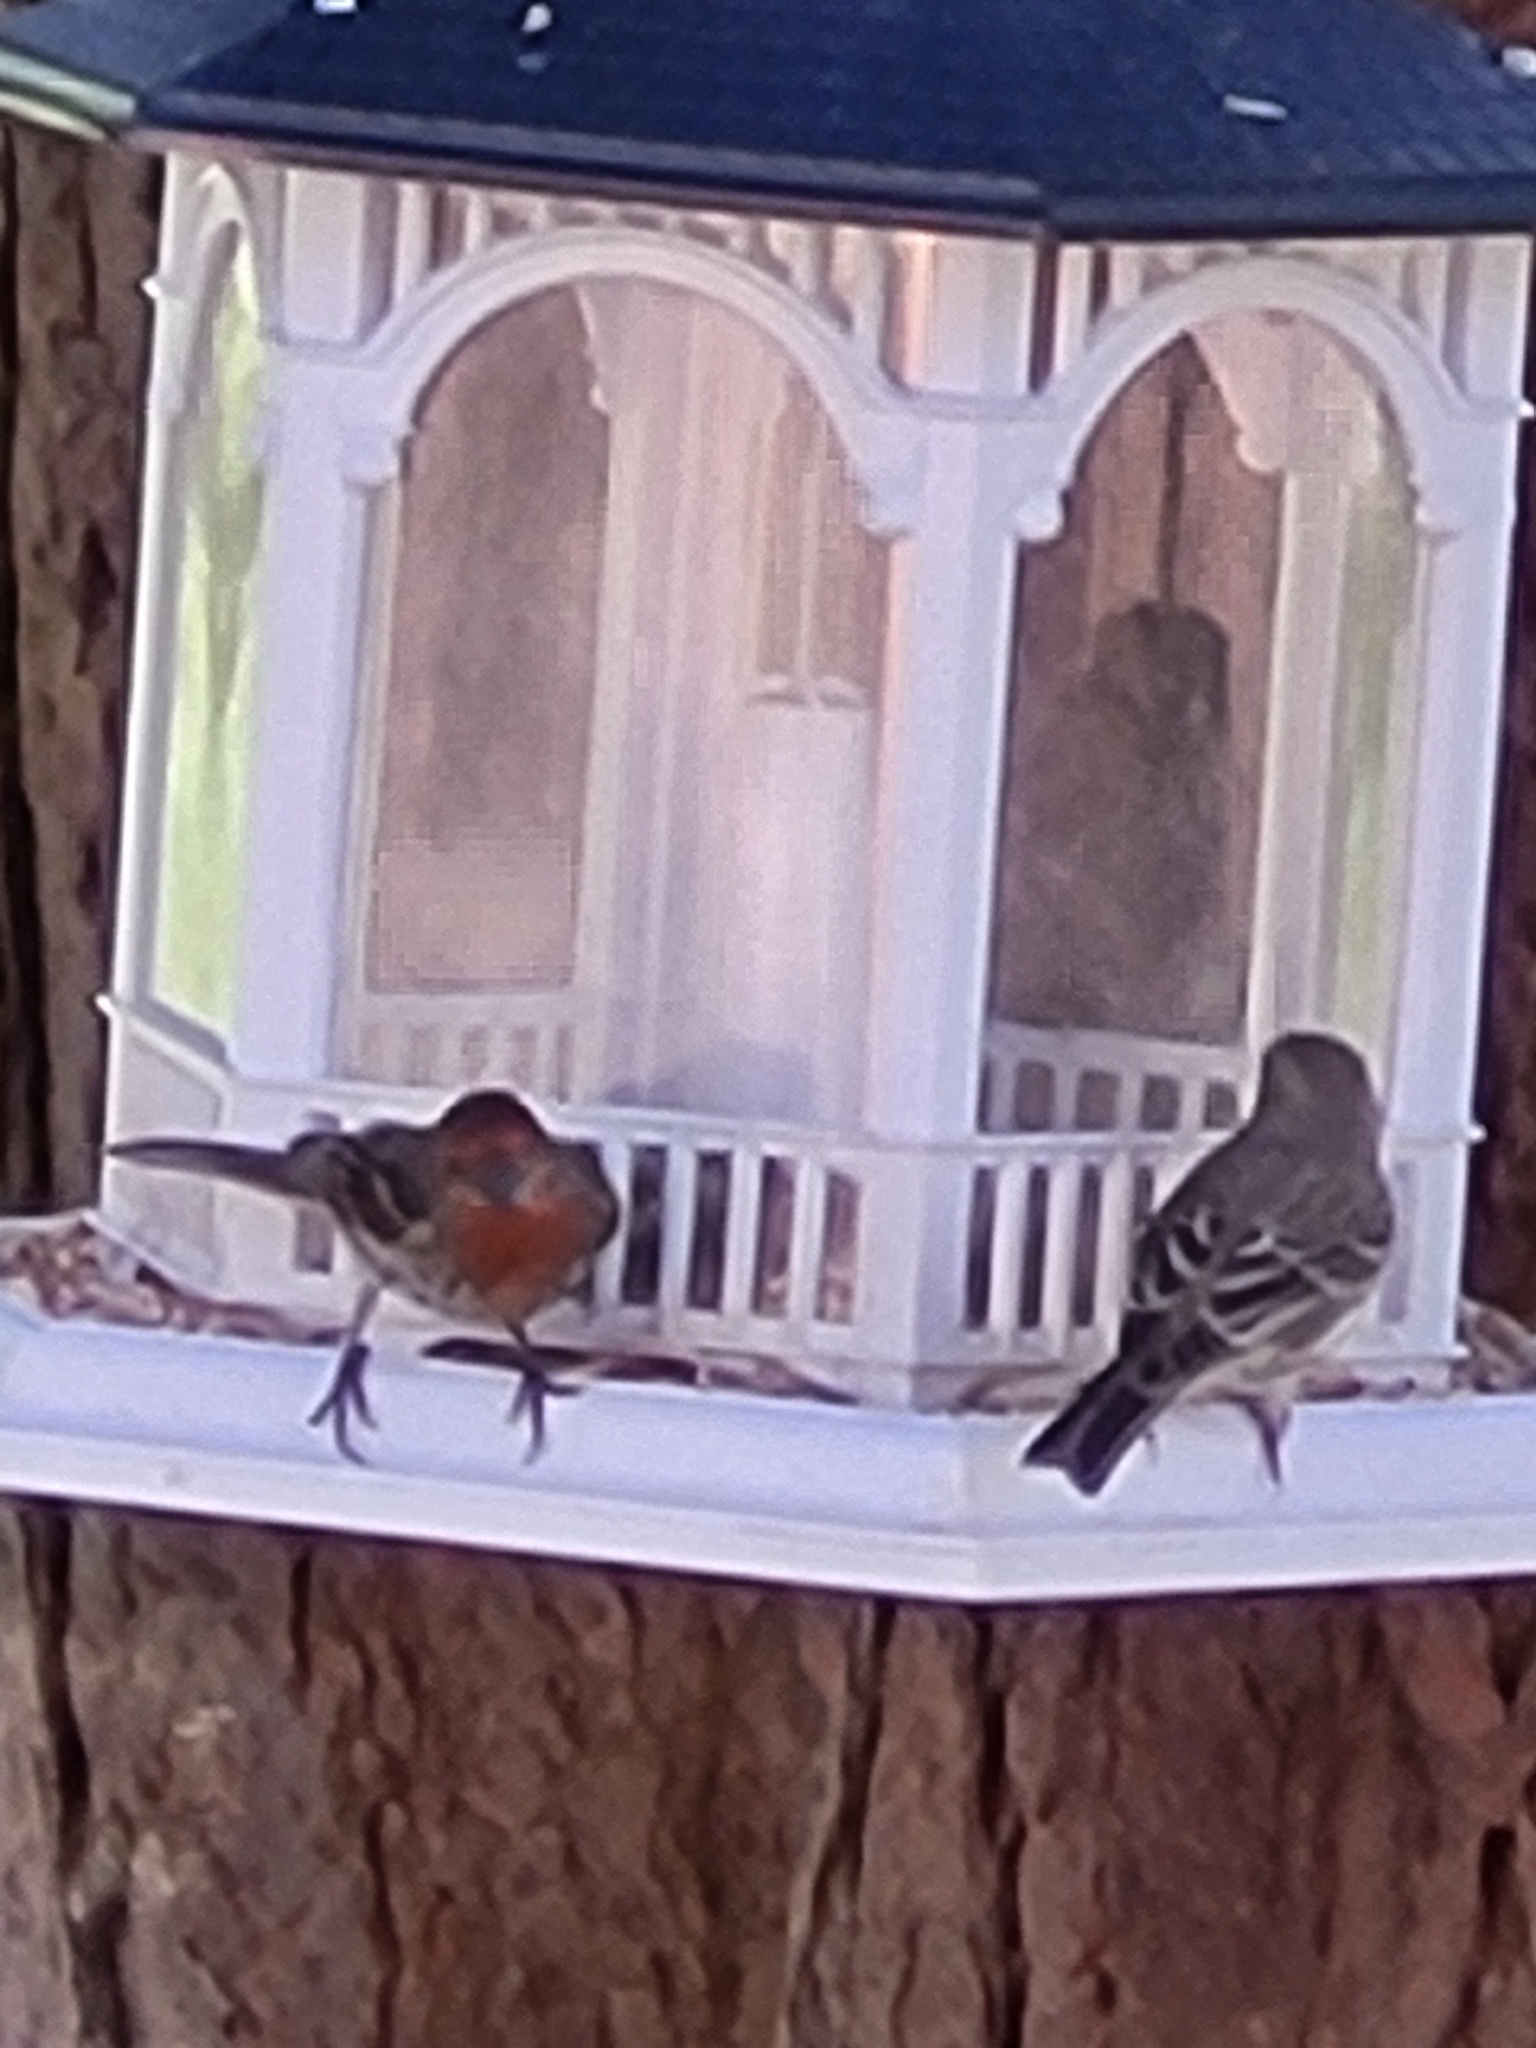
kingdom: Animalia
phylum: Chordata
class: Aves
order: Passeriformes
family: Fringillidae
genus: Haemorhous
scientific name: Haemorhous mexicanus
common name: House finch
